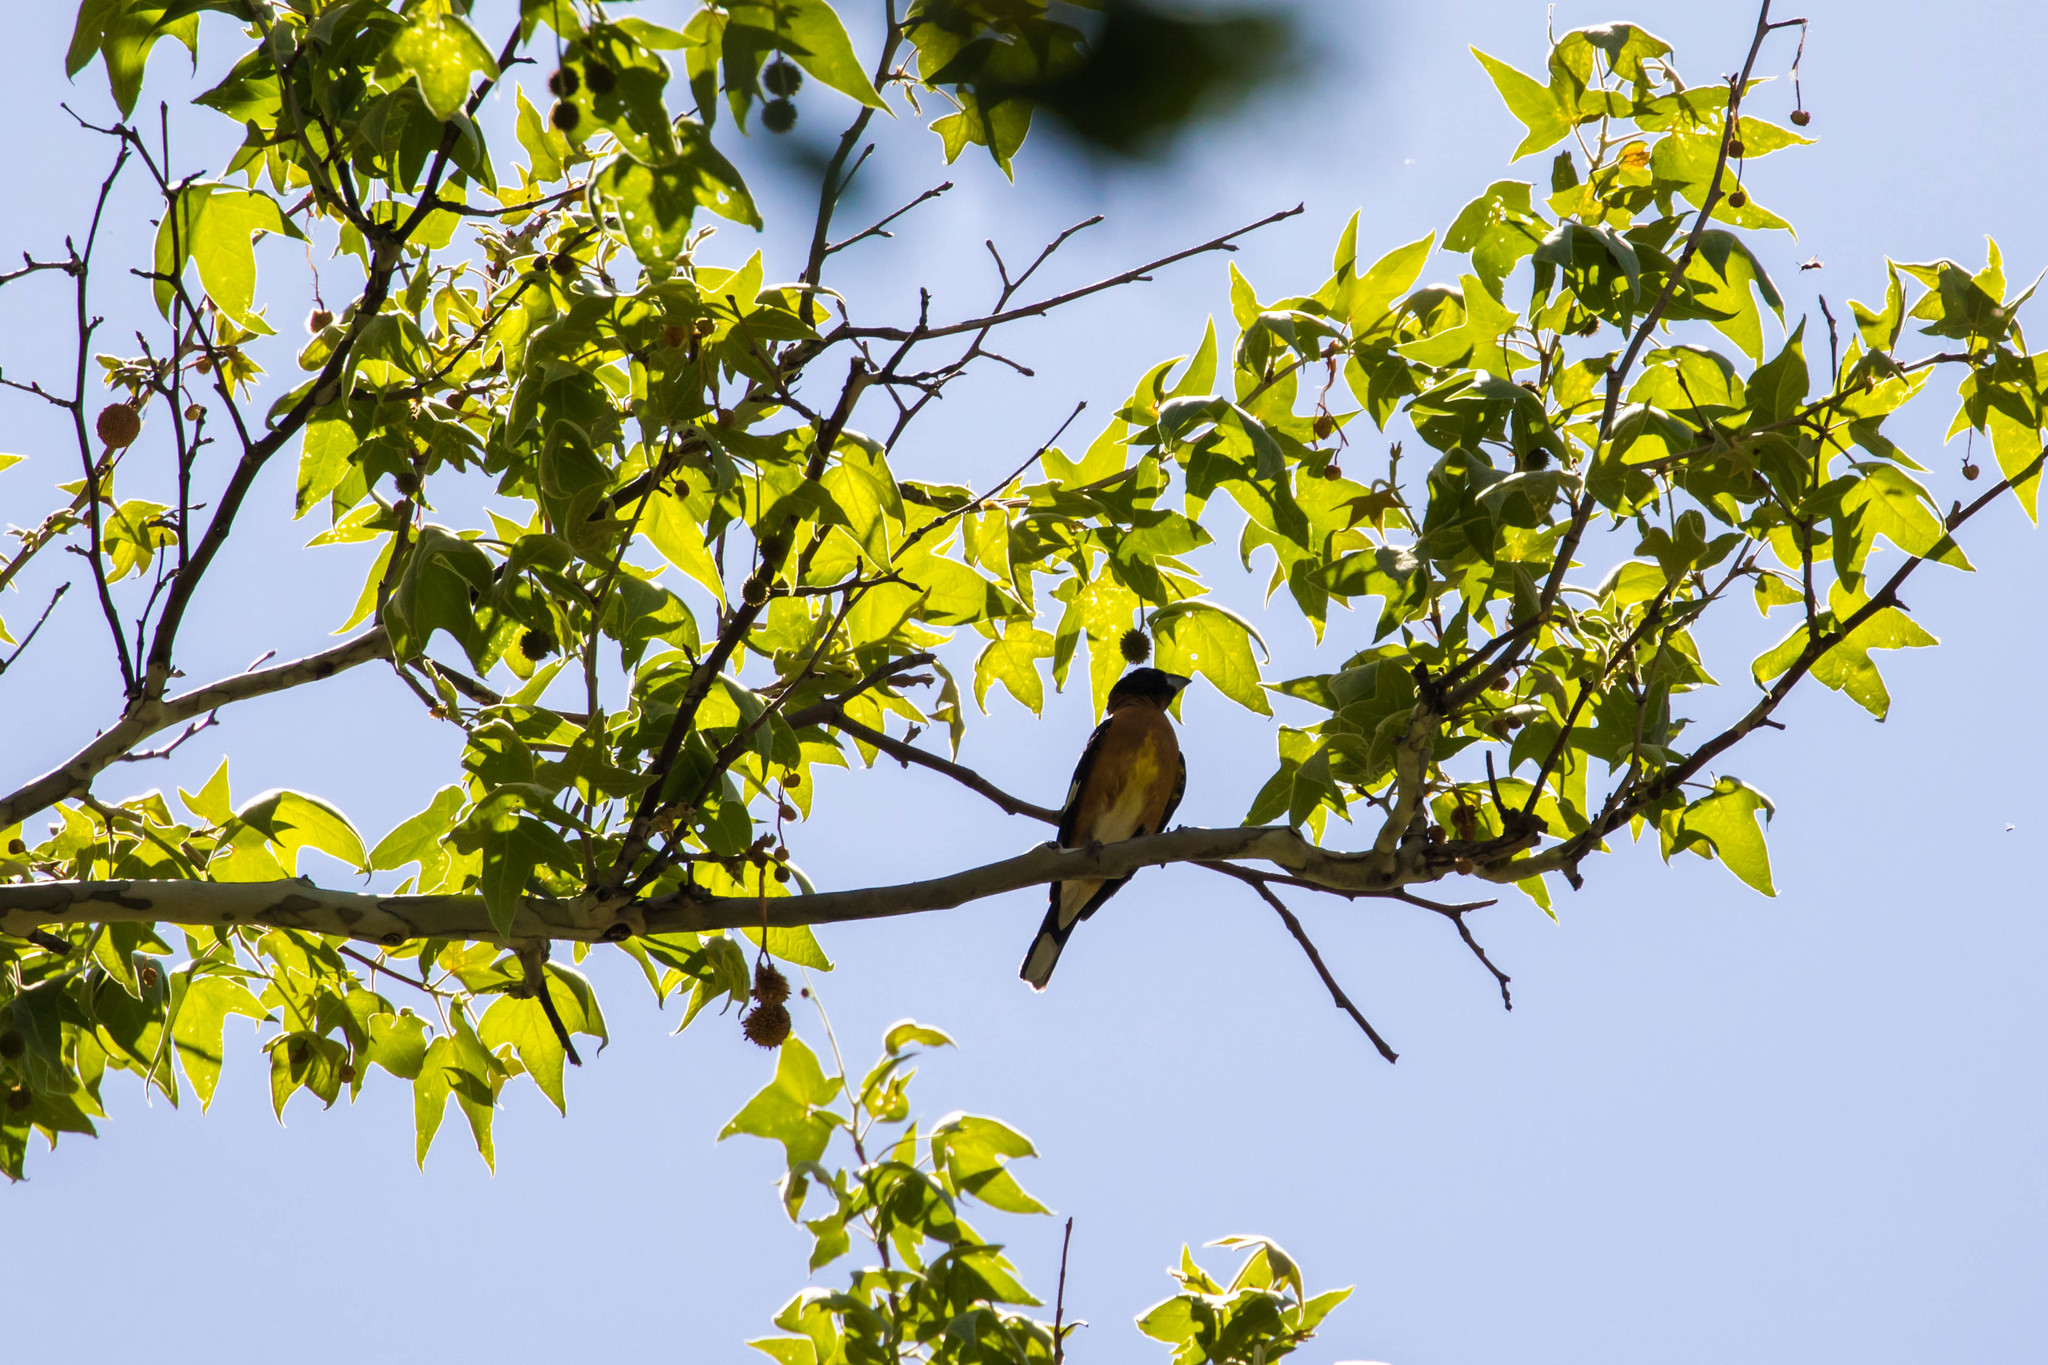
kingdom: Animalia
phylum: Chordata
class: Aves
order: Passeriformes
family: Cardinalidae
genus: Pheucticus
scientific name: Pheucticus melanocephalus
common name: Black-headed grosbeak
